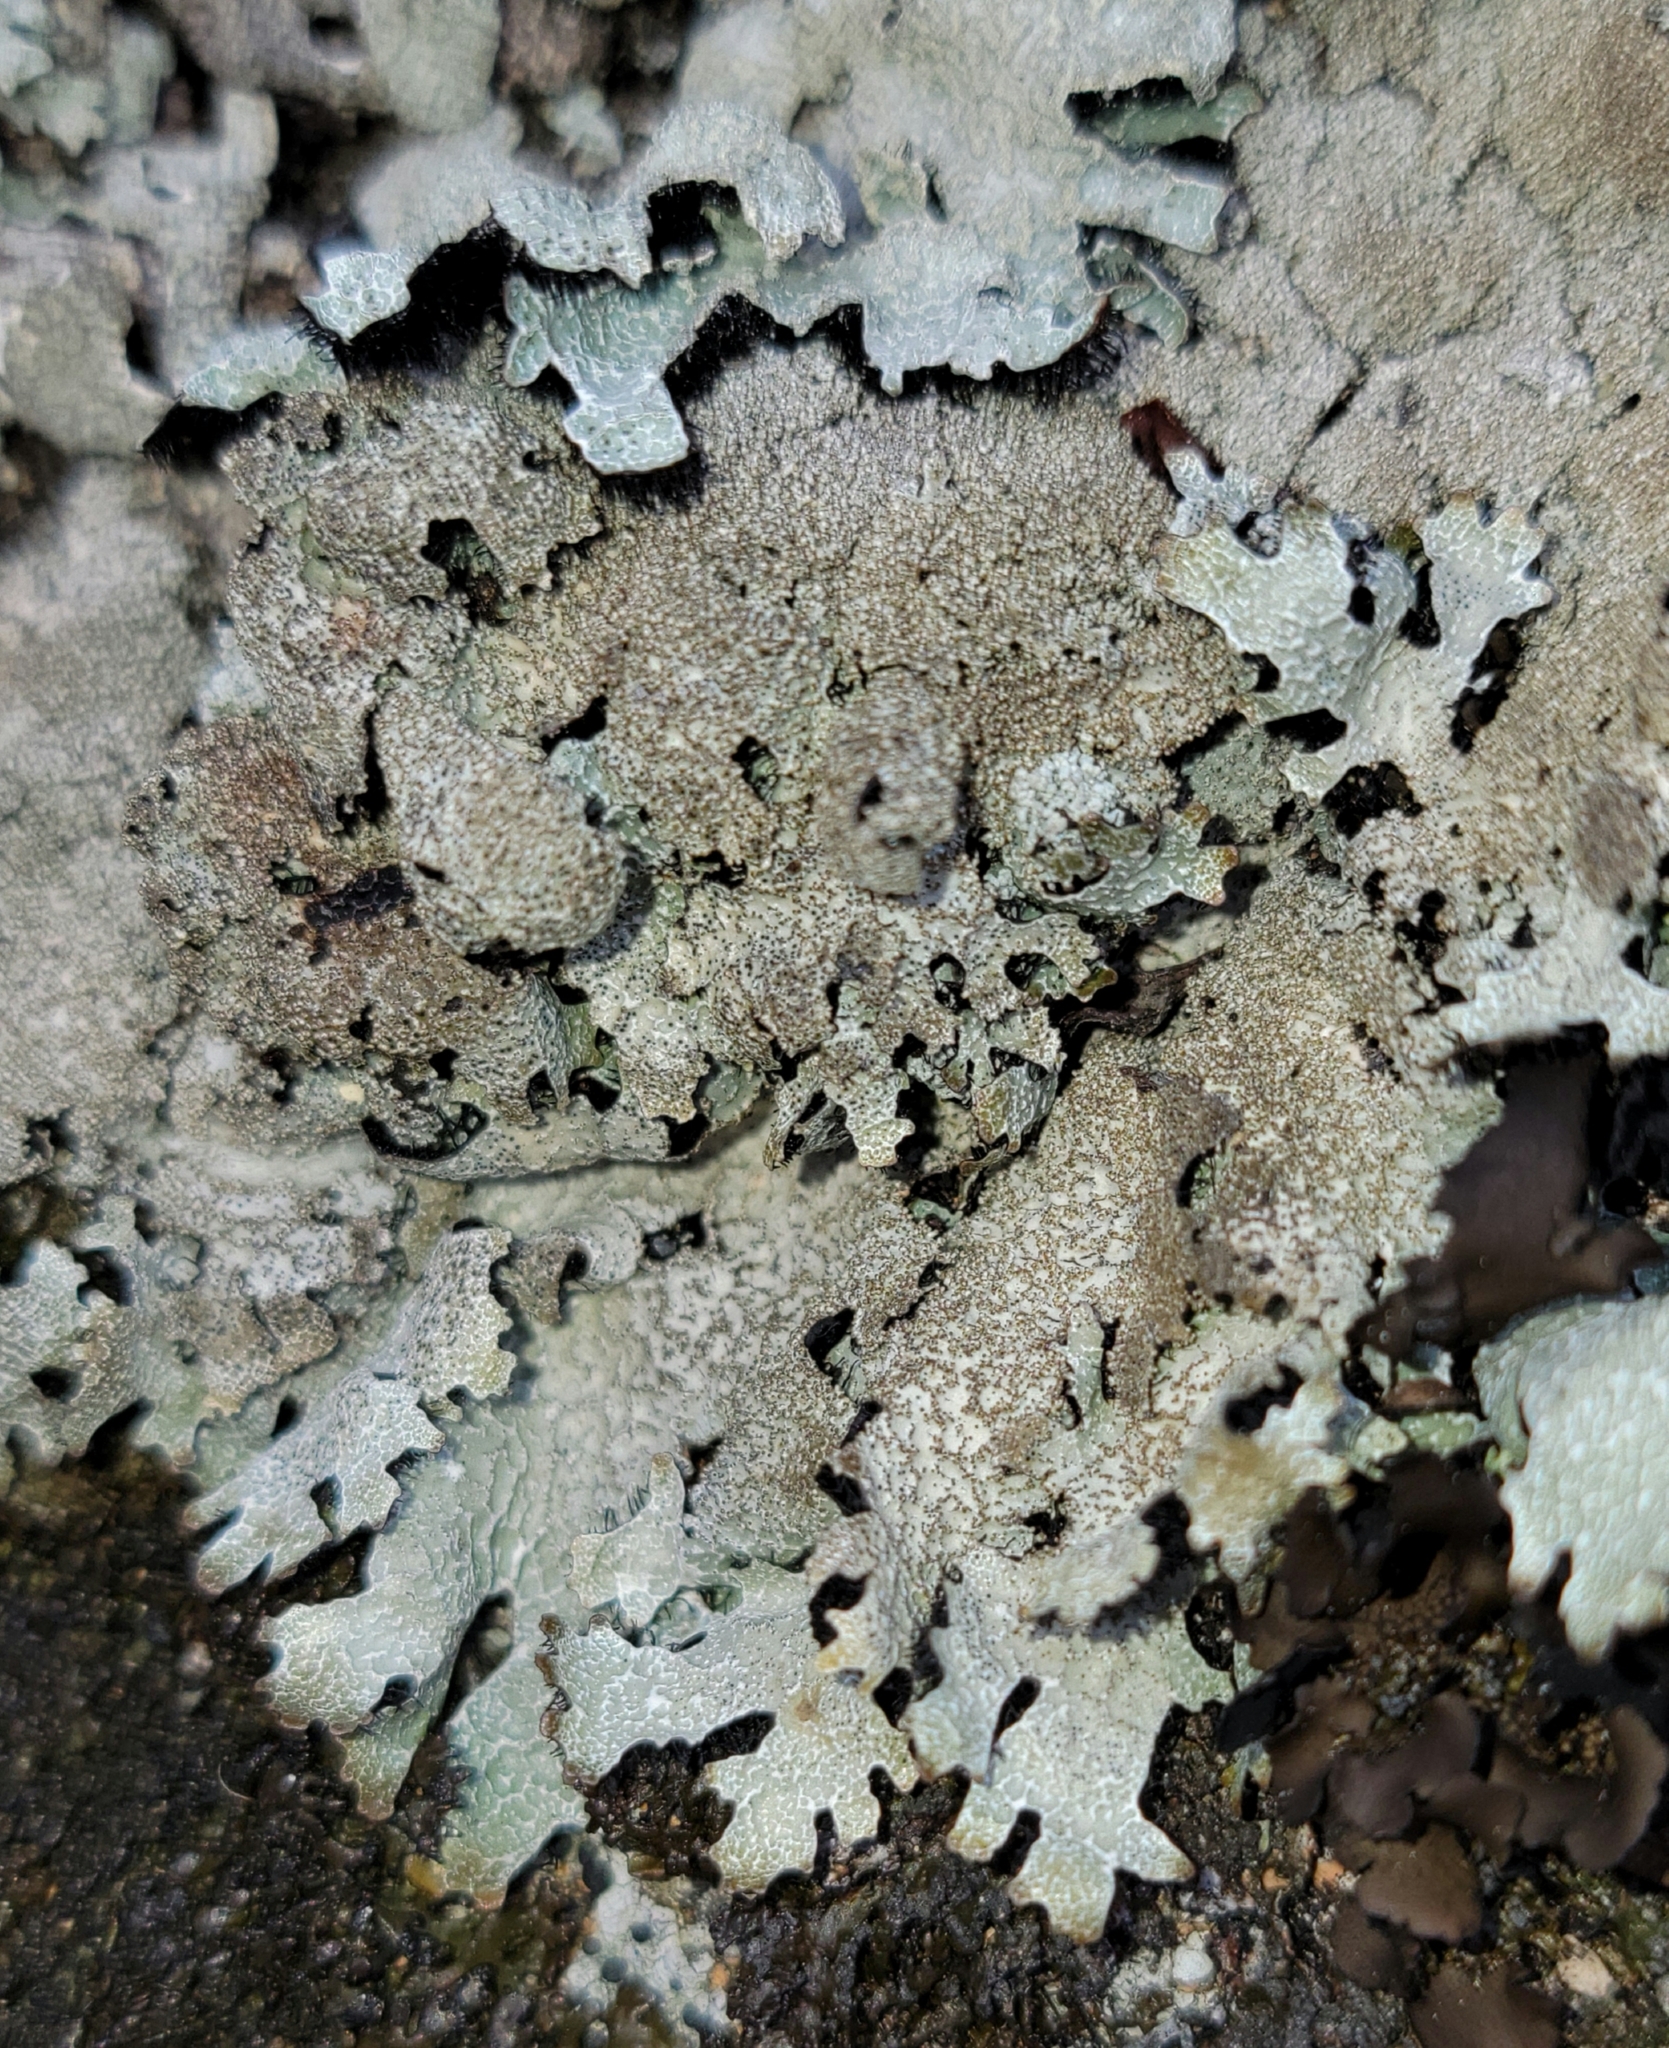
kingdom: Fungi
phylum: Ascomycota
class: Lecanoromycetes
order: Lecanorales
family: Parmeliaceae
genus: Parmelia
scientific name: Parmelia saxatilis
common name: Salted shield lichen
